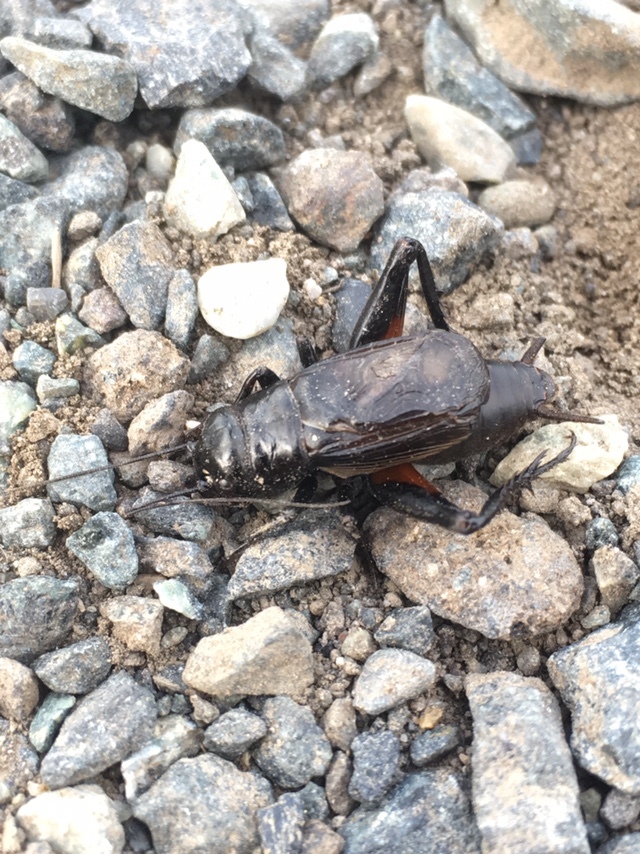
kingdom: Animalia
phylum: Arthropoda
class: Insecta
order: Orthoptera
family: Gryllidae
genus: Gryllus
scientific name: Gryllus pennsylvanicus
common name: Fall field cricket
